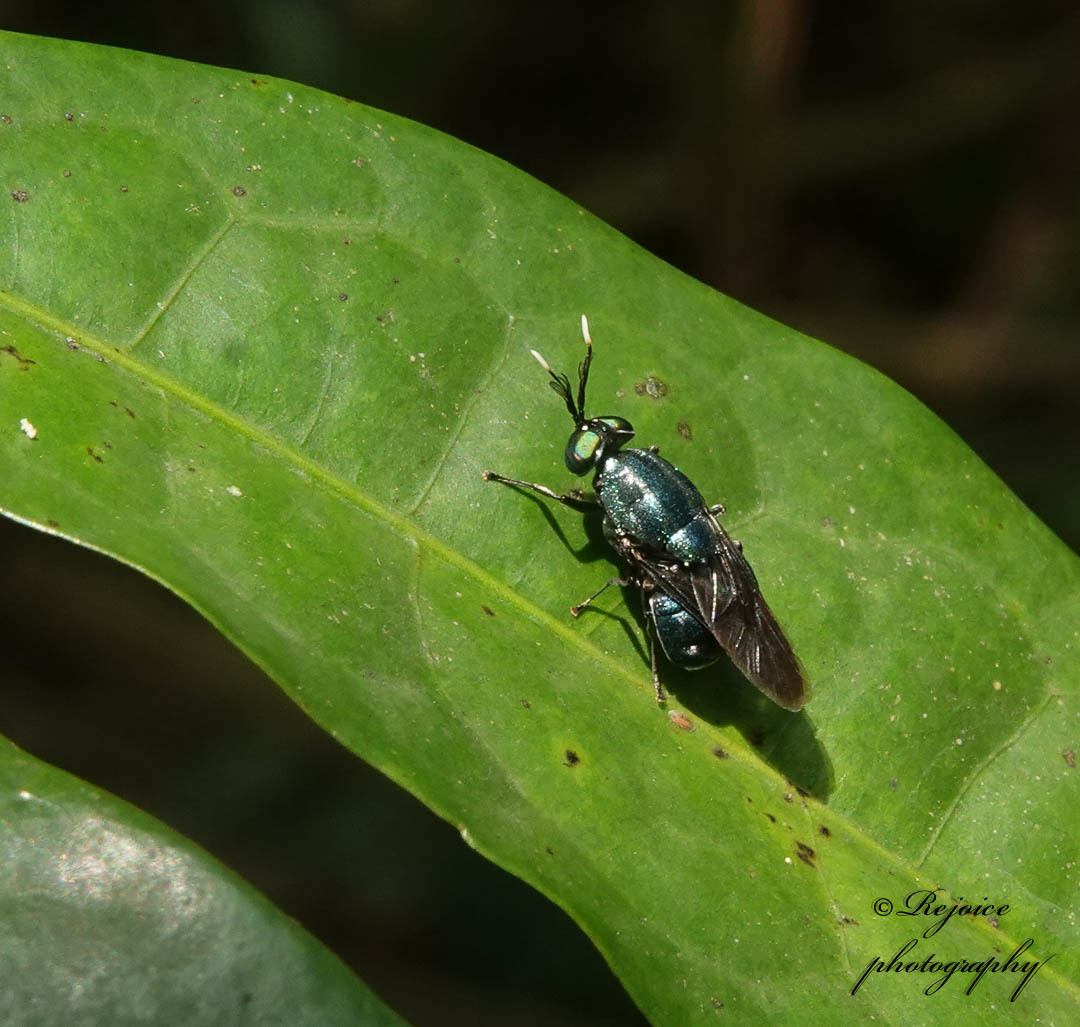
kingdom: Animalia
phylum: Arthropoda
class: Insecta
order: Diptera
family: Stratiomyidae
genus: Ptilocera
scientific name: Ptilocera continua
